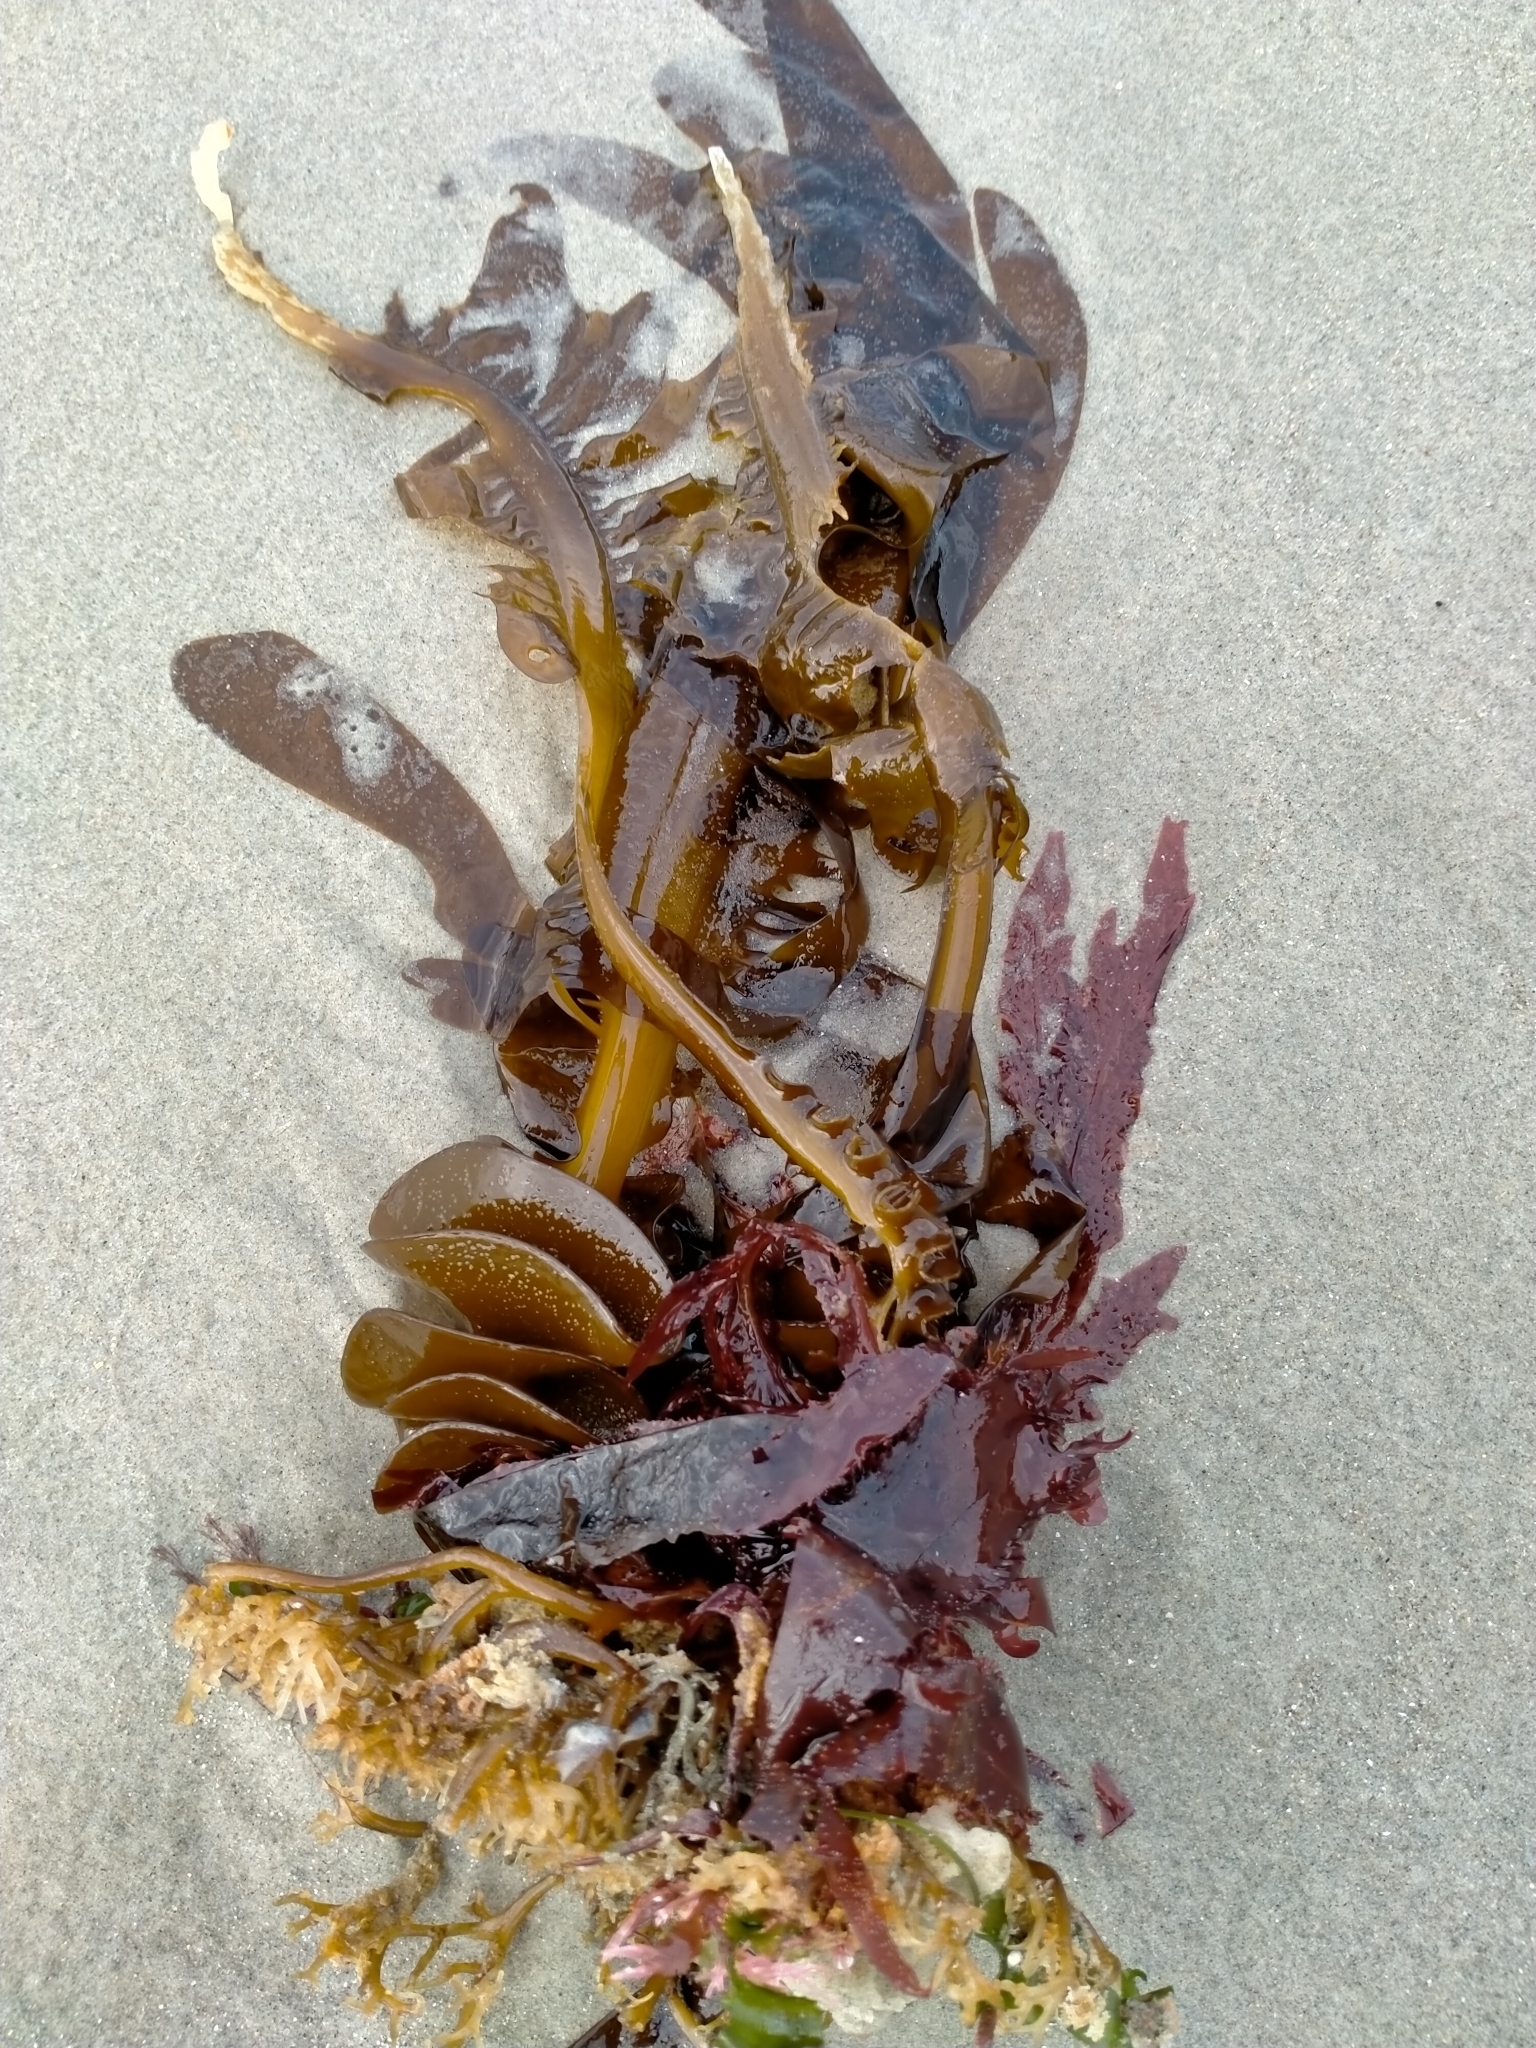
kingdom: Chromista
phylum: Ochrophyta
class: Phaeophyceae
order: Laminariales
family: Alariaceae
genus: Undaria
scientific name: Undaria pinnatifida
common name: Asian kelp
